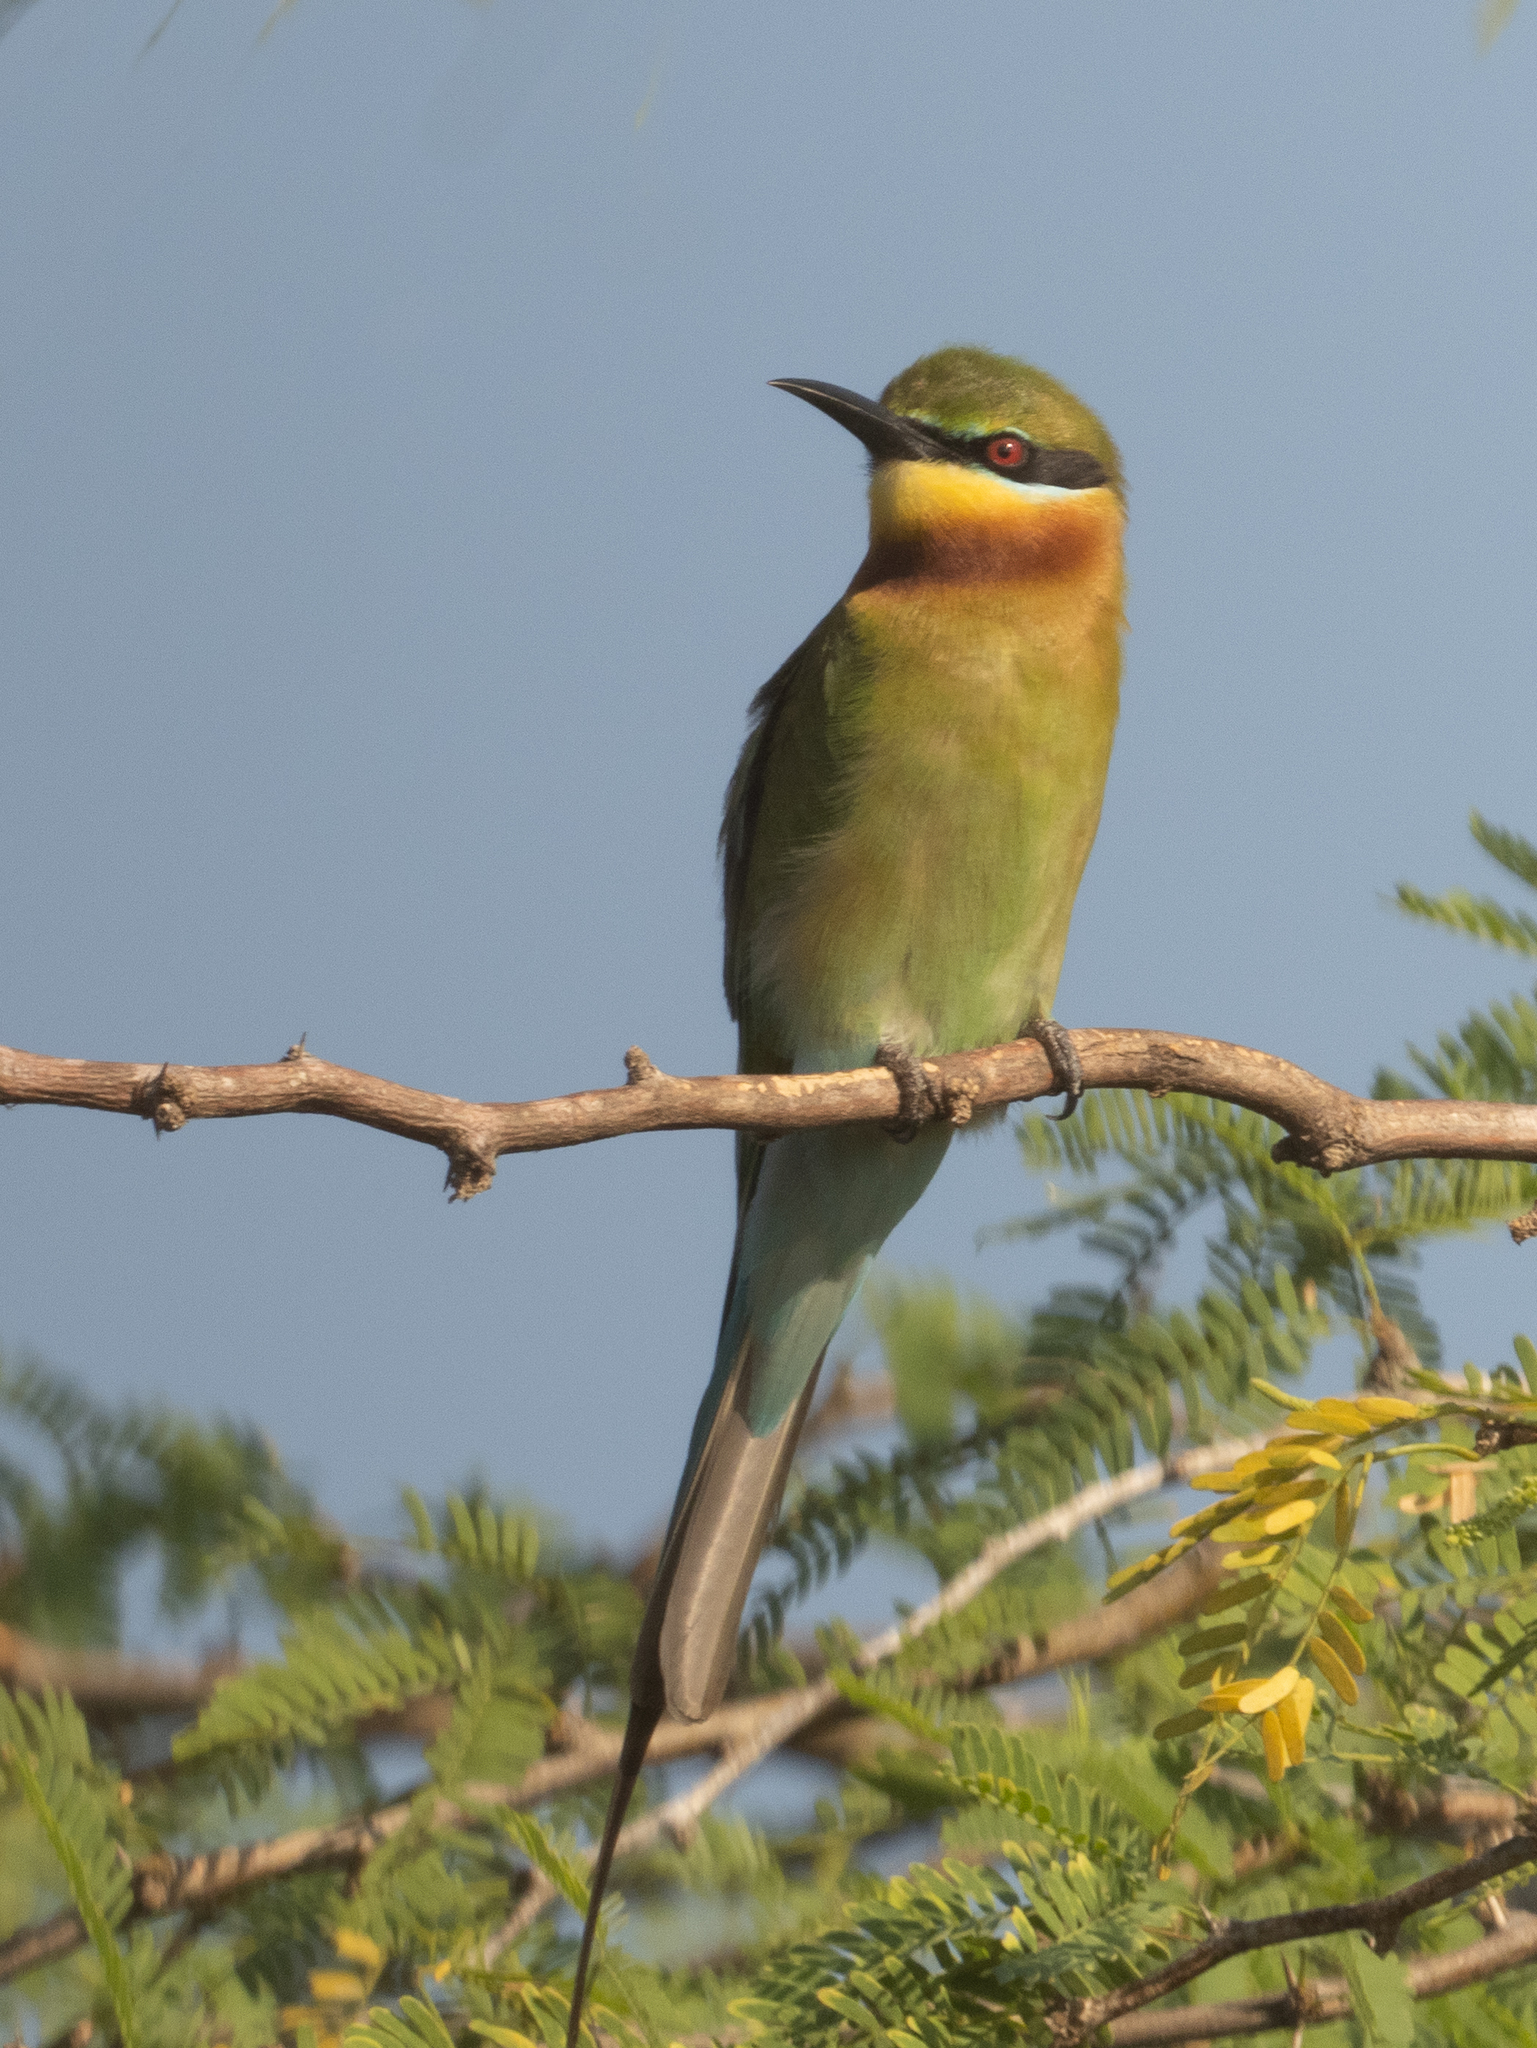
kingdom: Animalia
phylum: Chordata
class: Aves
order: Coraciiformes
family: Meropidae
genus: Merops
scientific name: Merops philippinus
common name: Blue-tailed bee-eater
